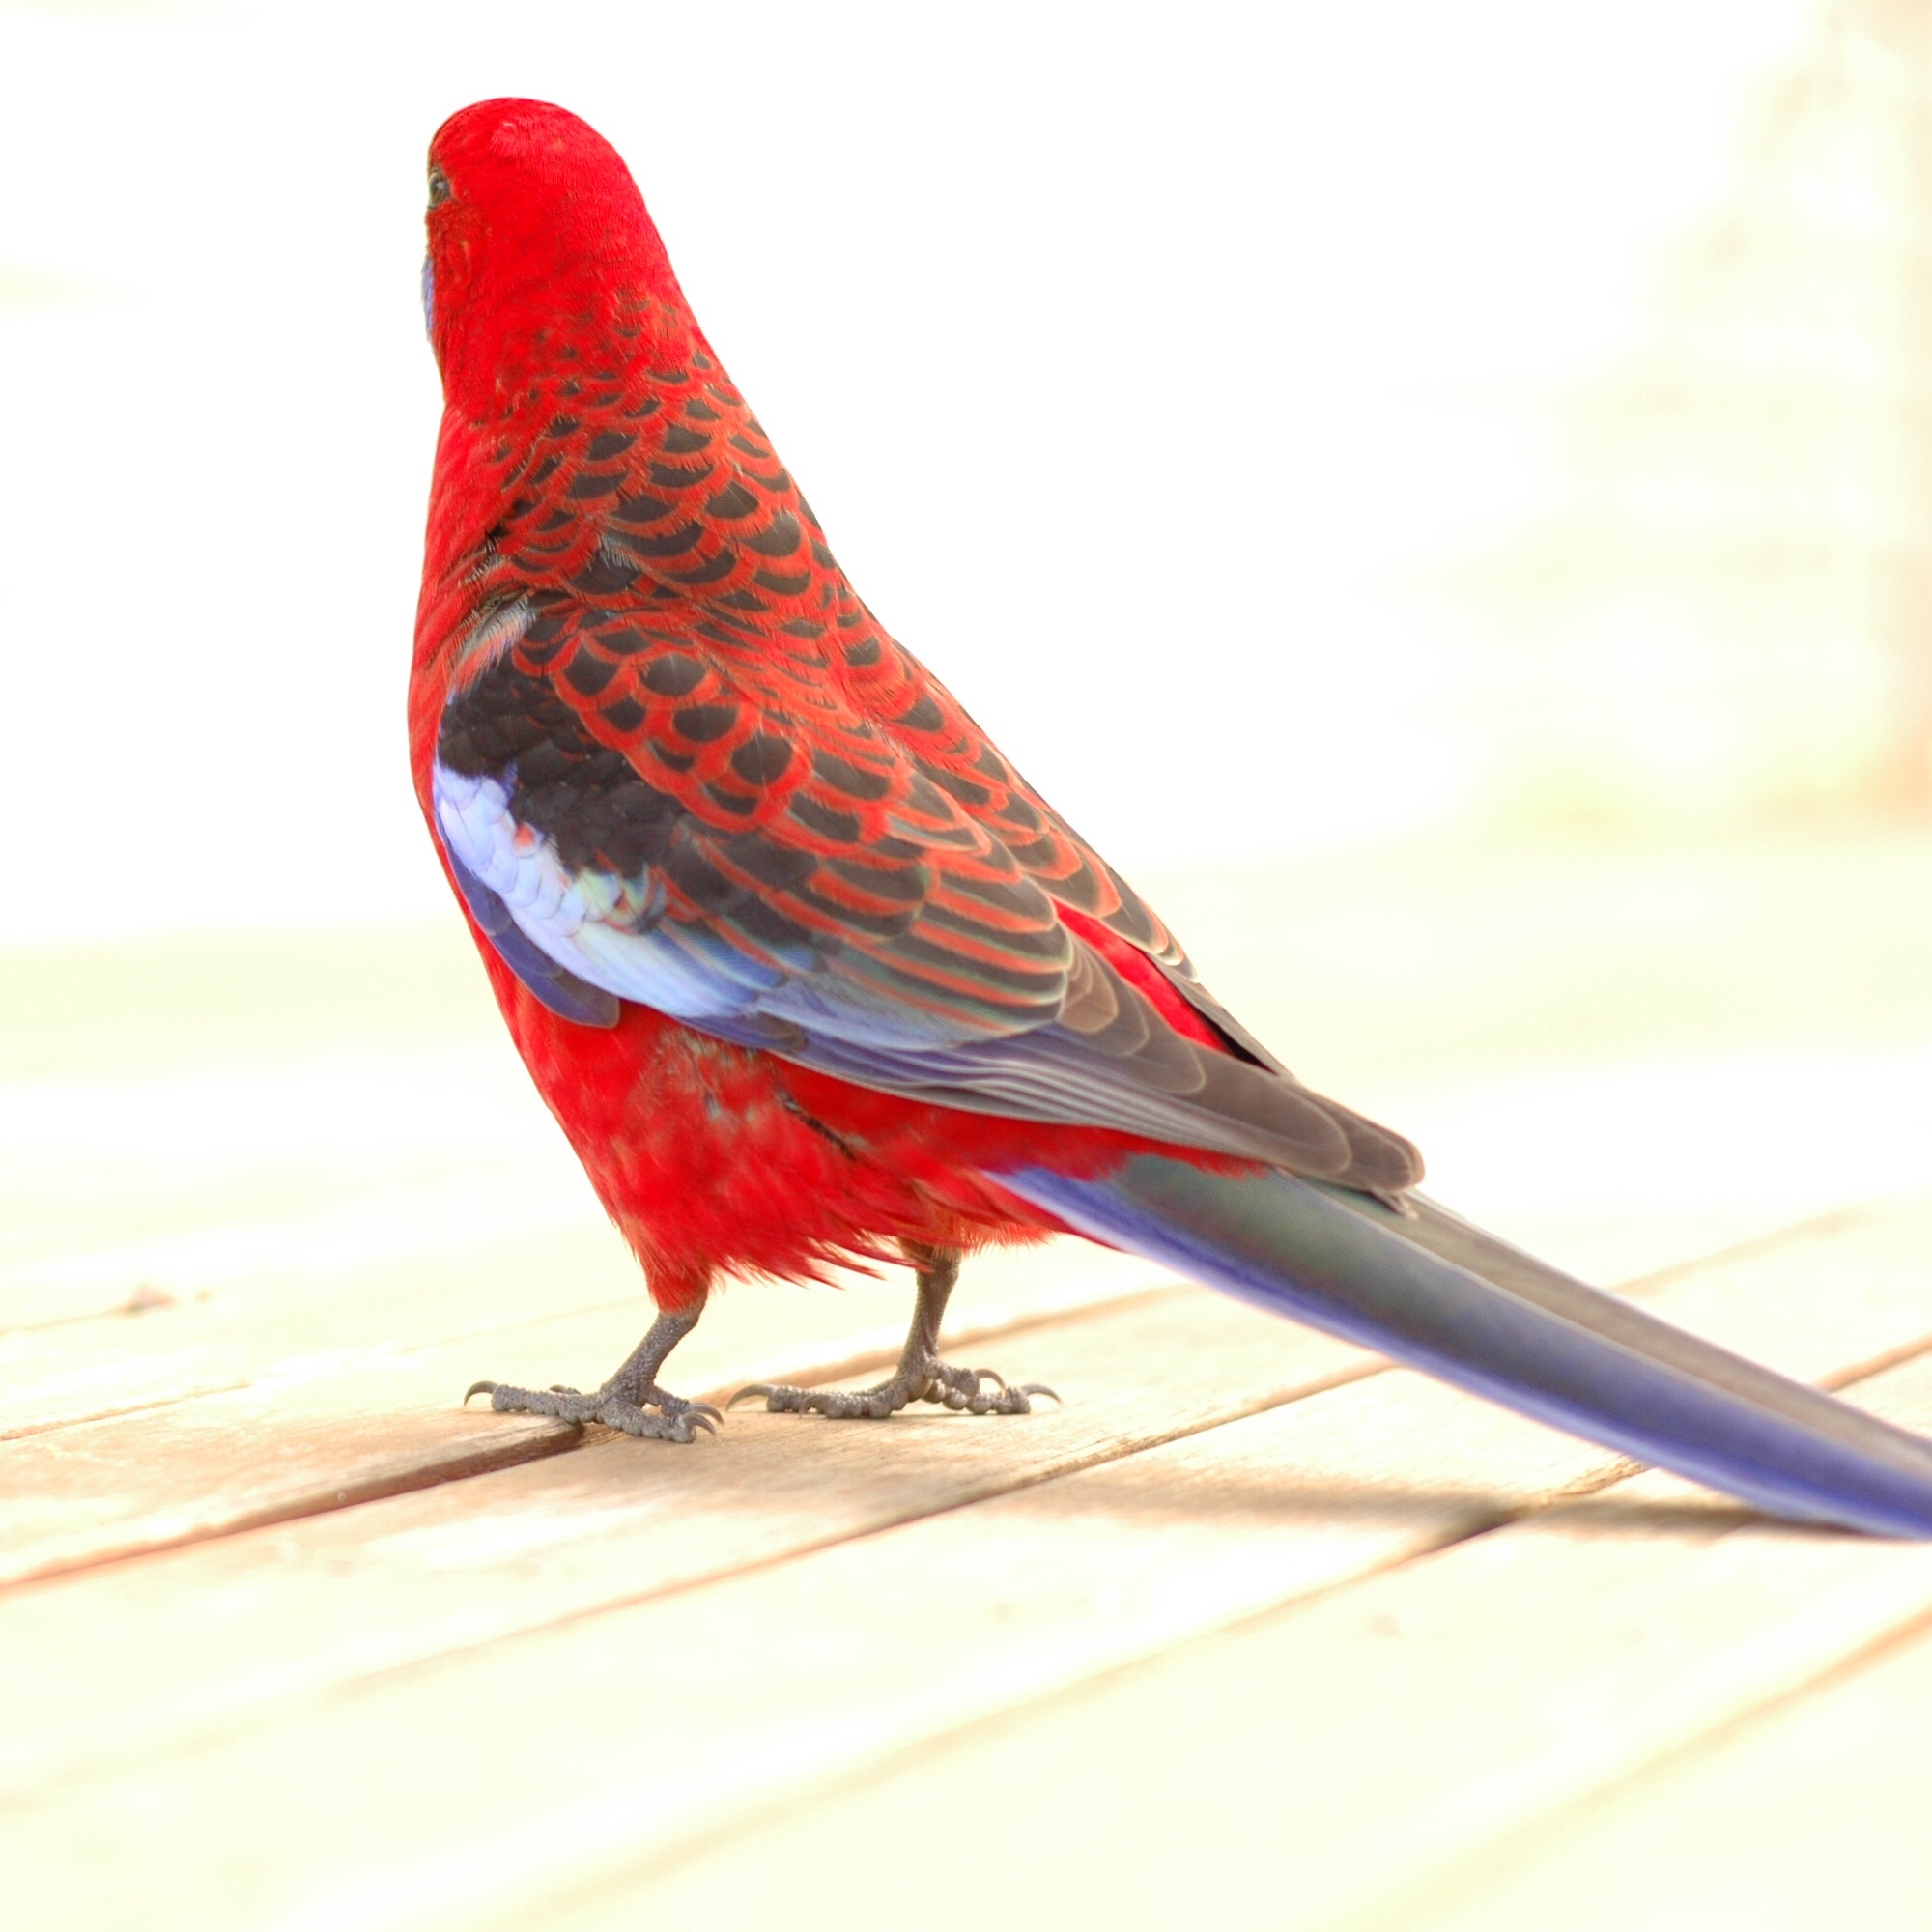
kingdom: Animalia
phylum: Chordata
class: Aves
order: Psittaciformes
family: Psittacidae
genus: Platycercus
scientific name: Platycercus elegans
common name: Crimson rosella
